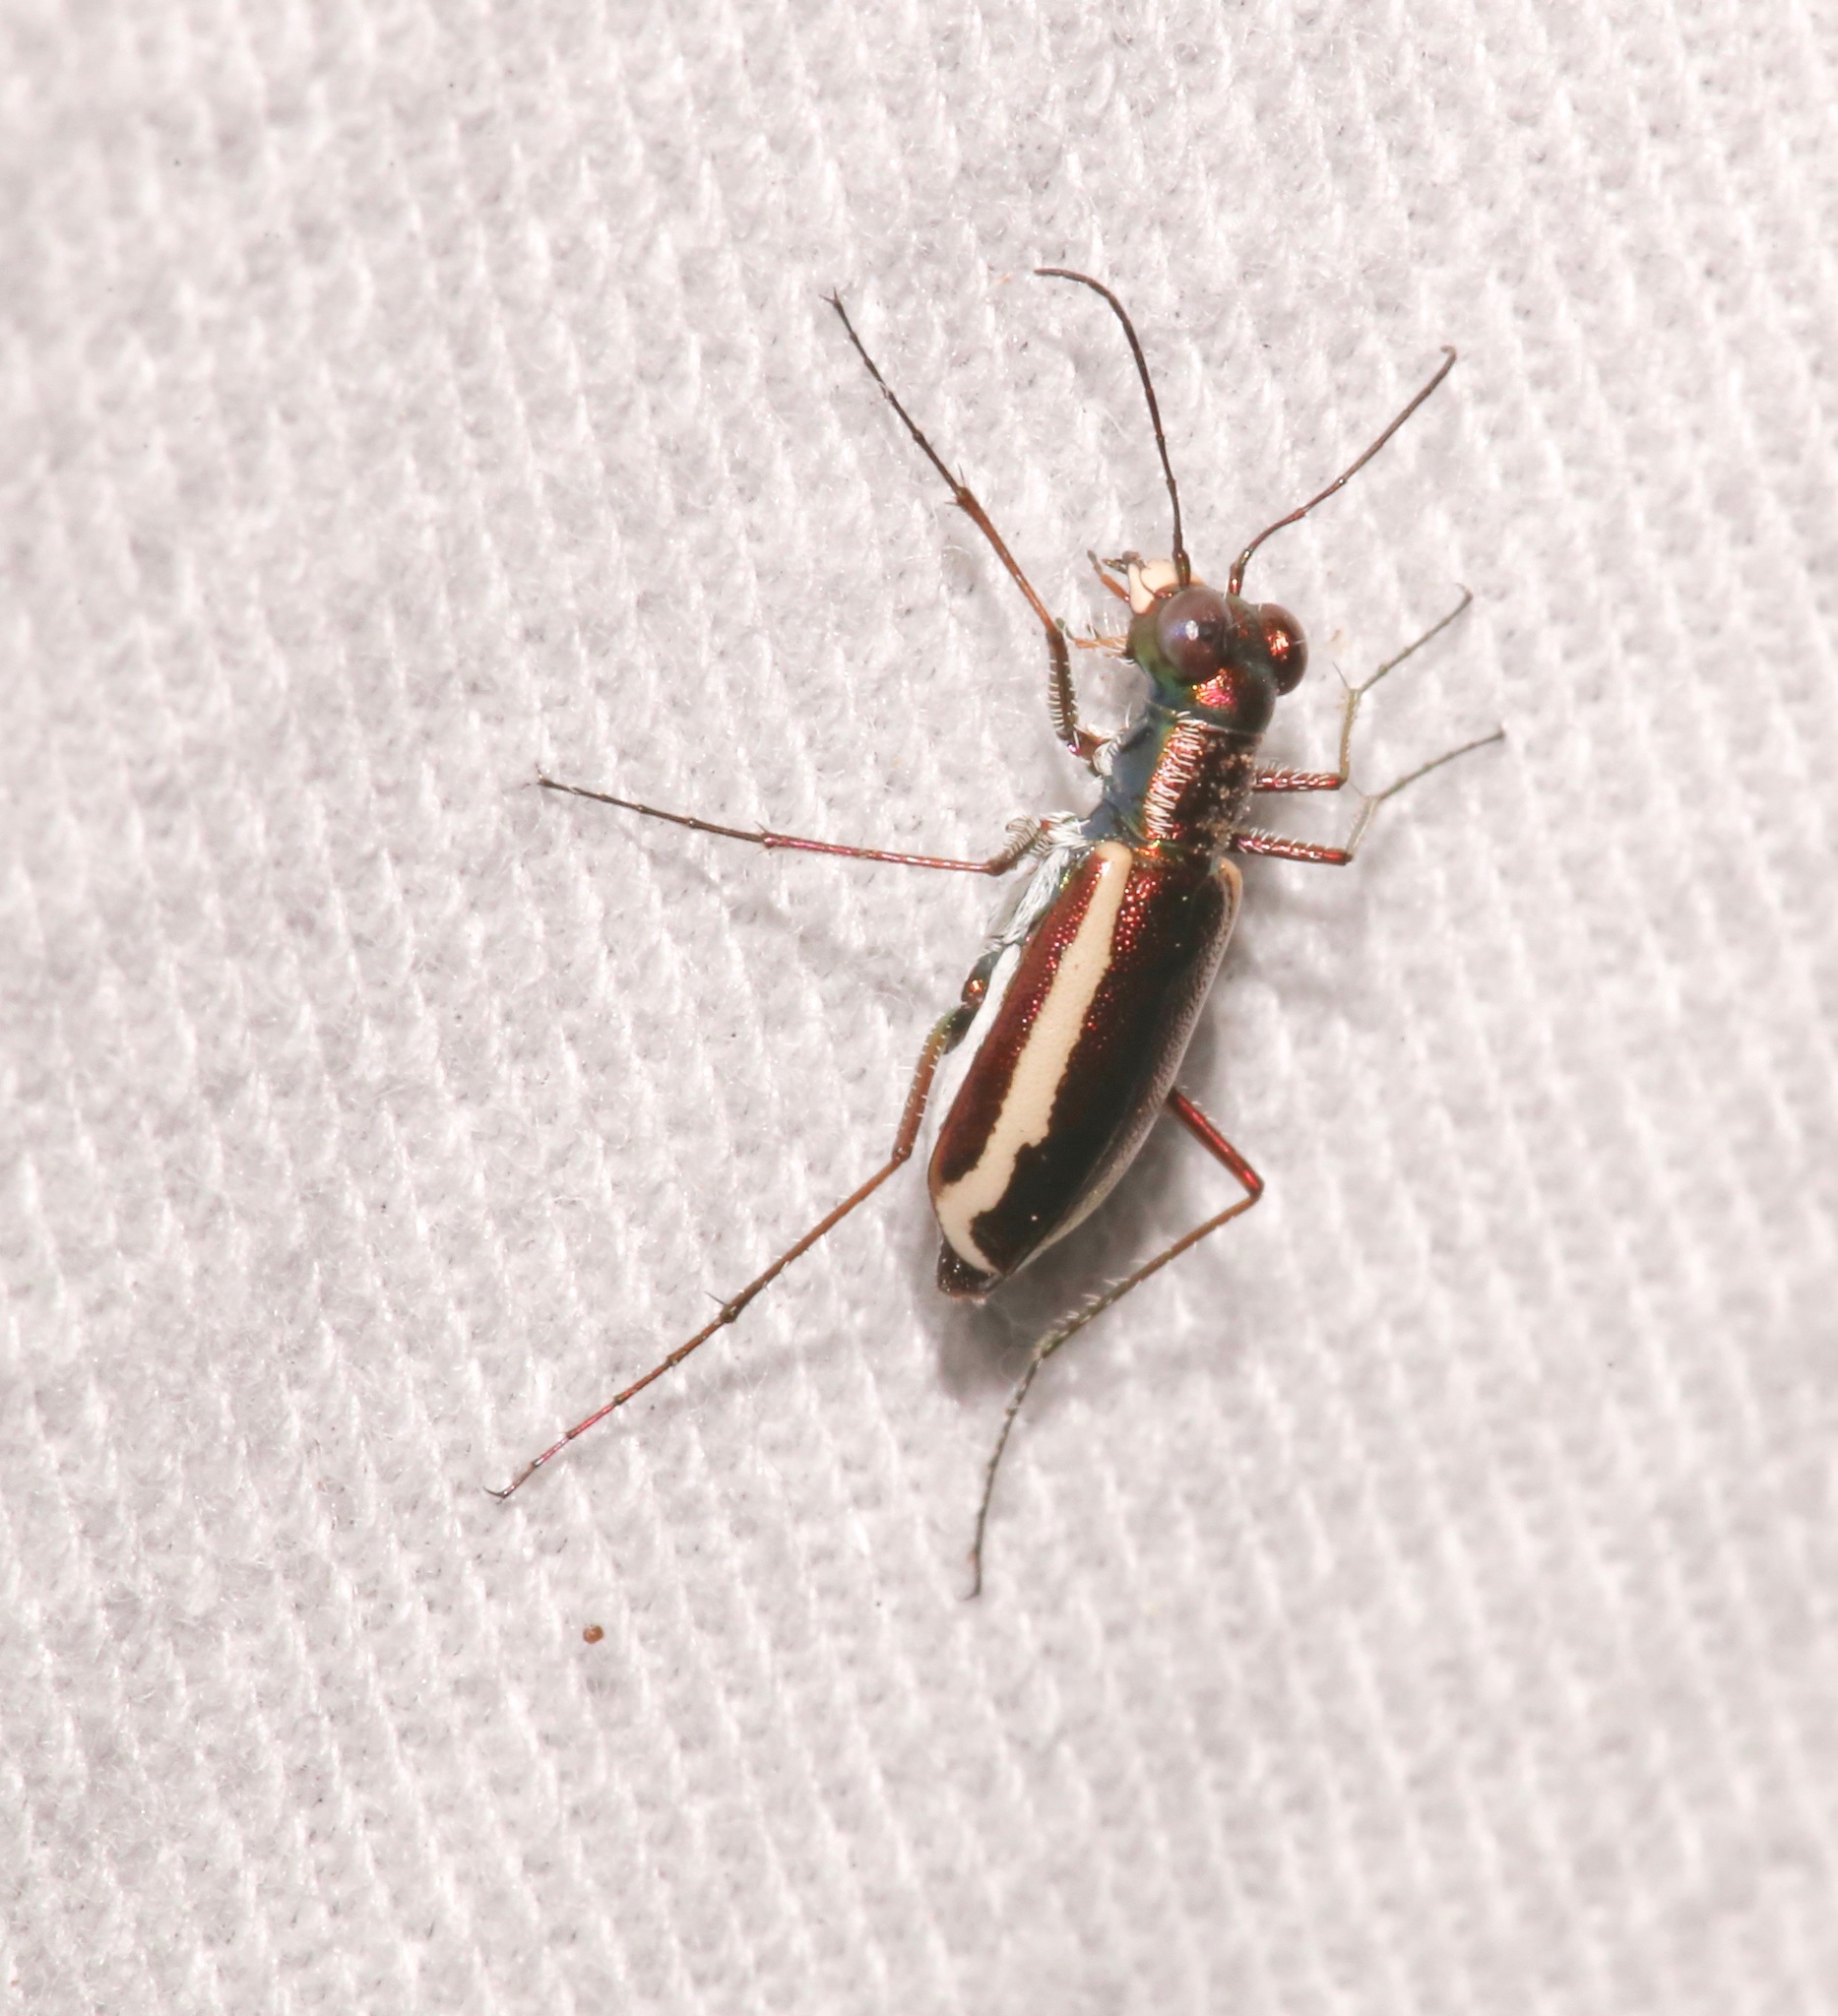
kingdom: Animalia
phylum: Arthropoda
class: Insecta
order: Coleoptera
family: Carabidae
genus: Cylindera
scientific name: Cylindera lemniscata
